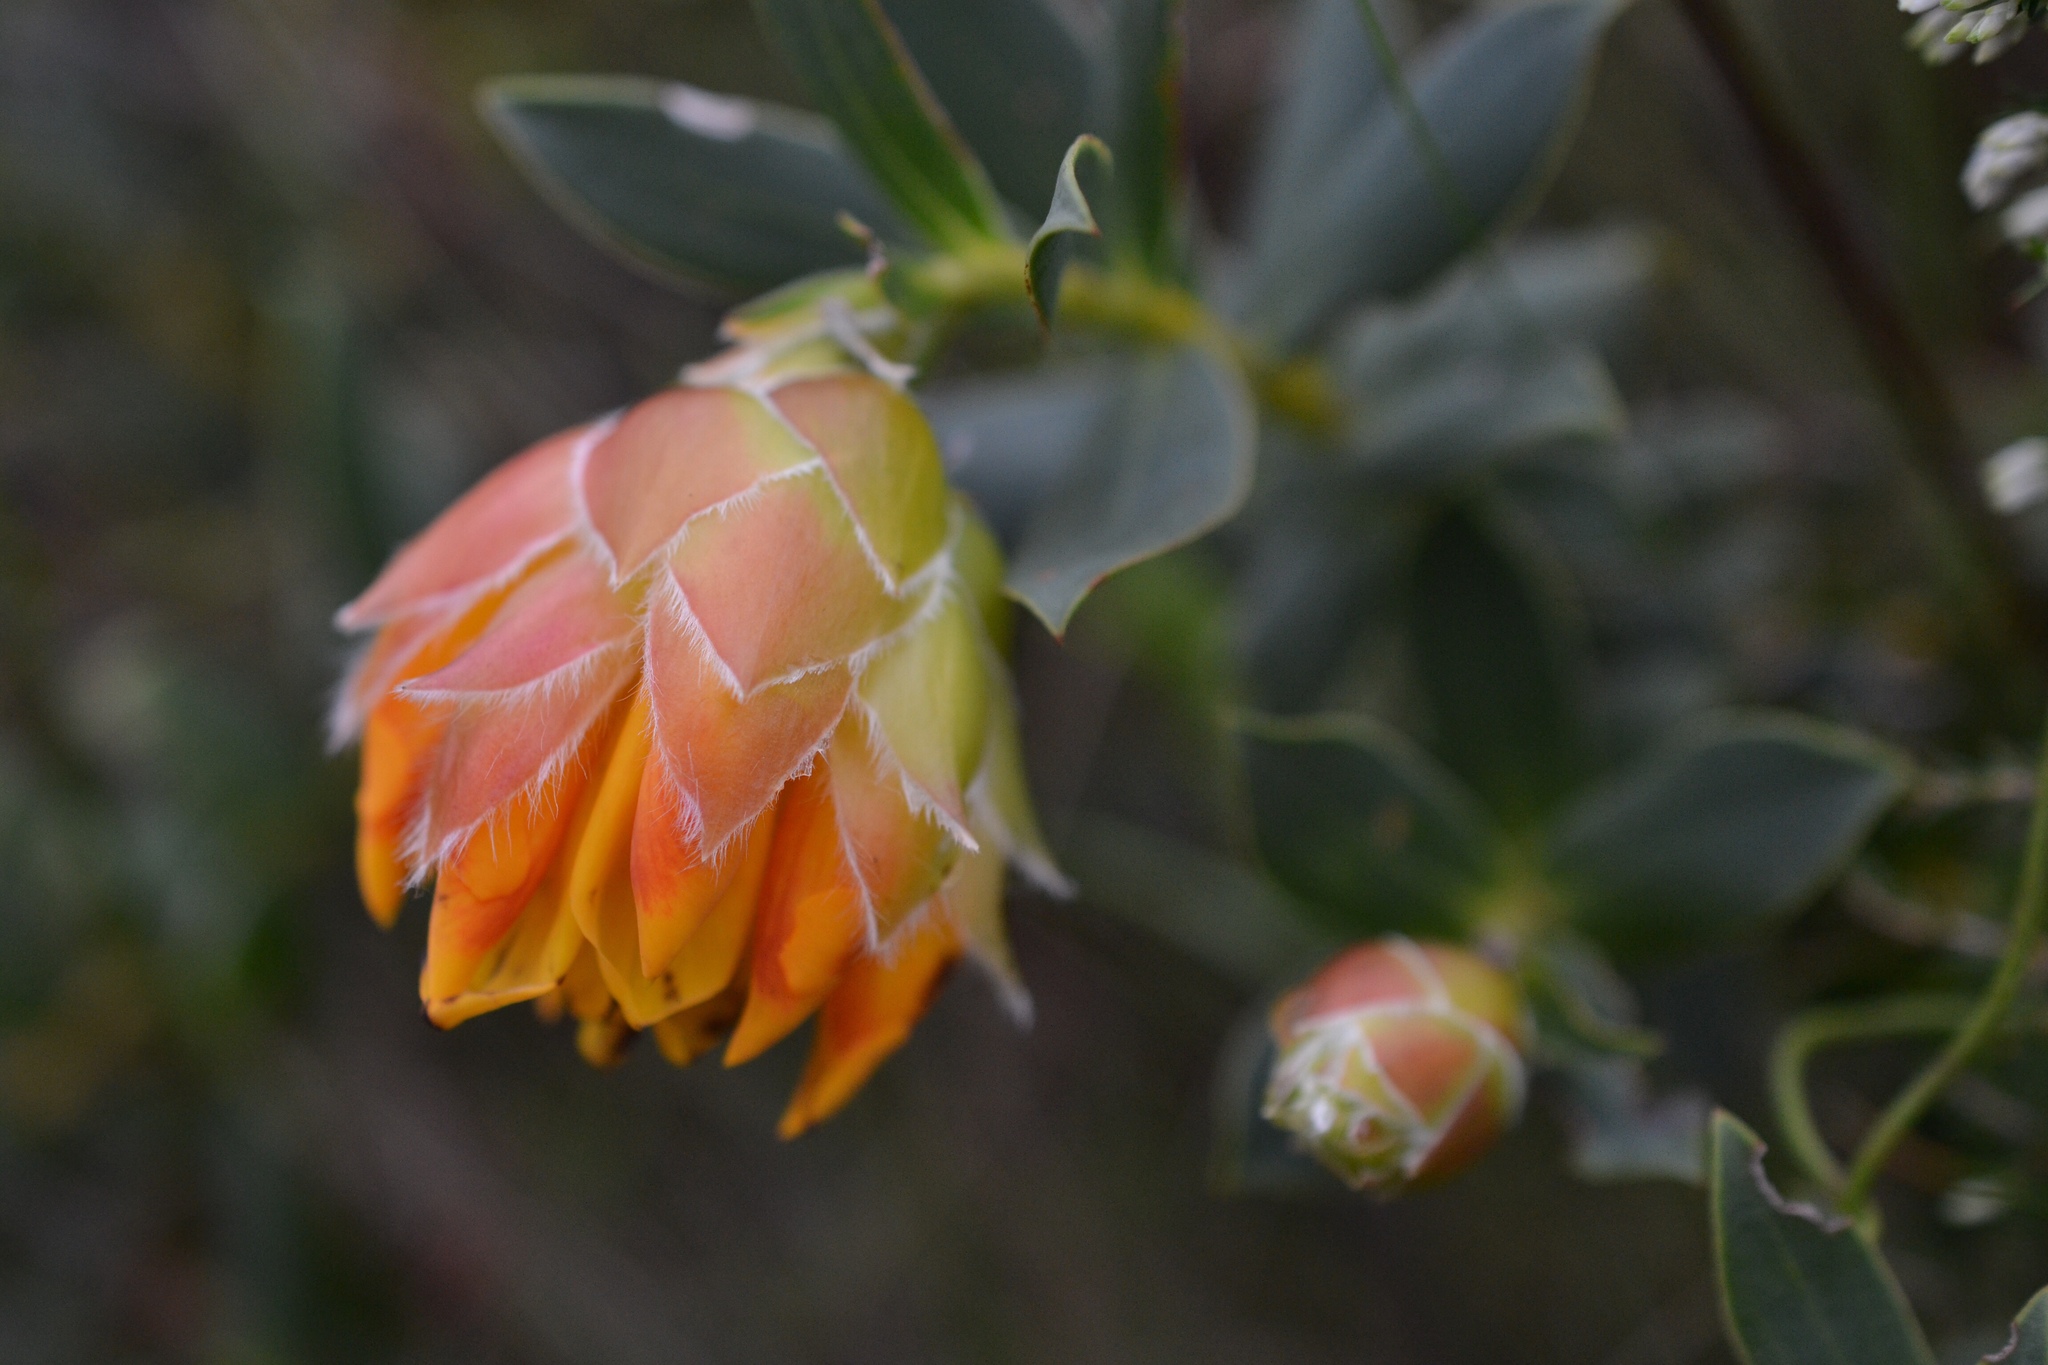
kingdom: Plantae
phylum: Tracheophyta
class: Magnoliopsida
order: Fabales
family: Fabaceae
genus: Liparia
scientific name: Liparia splendens
